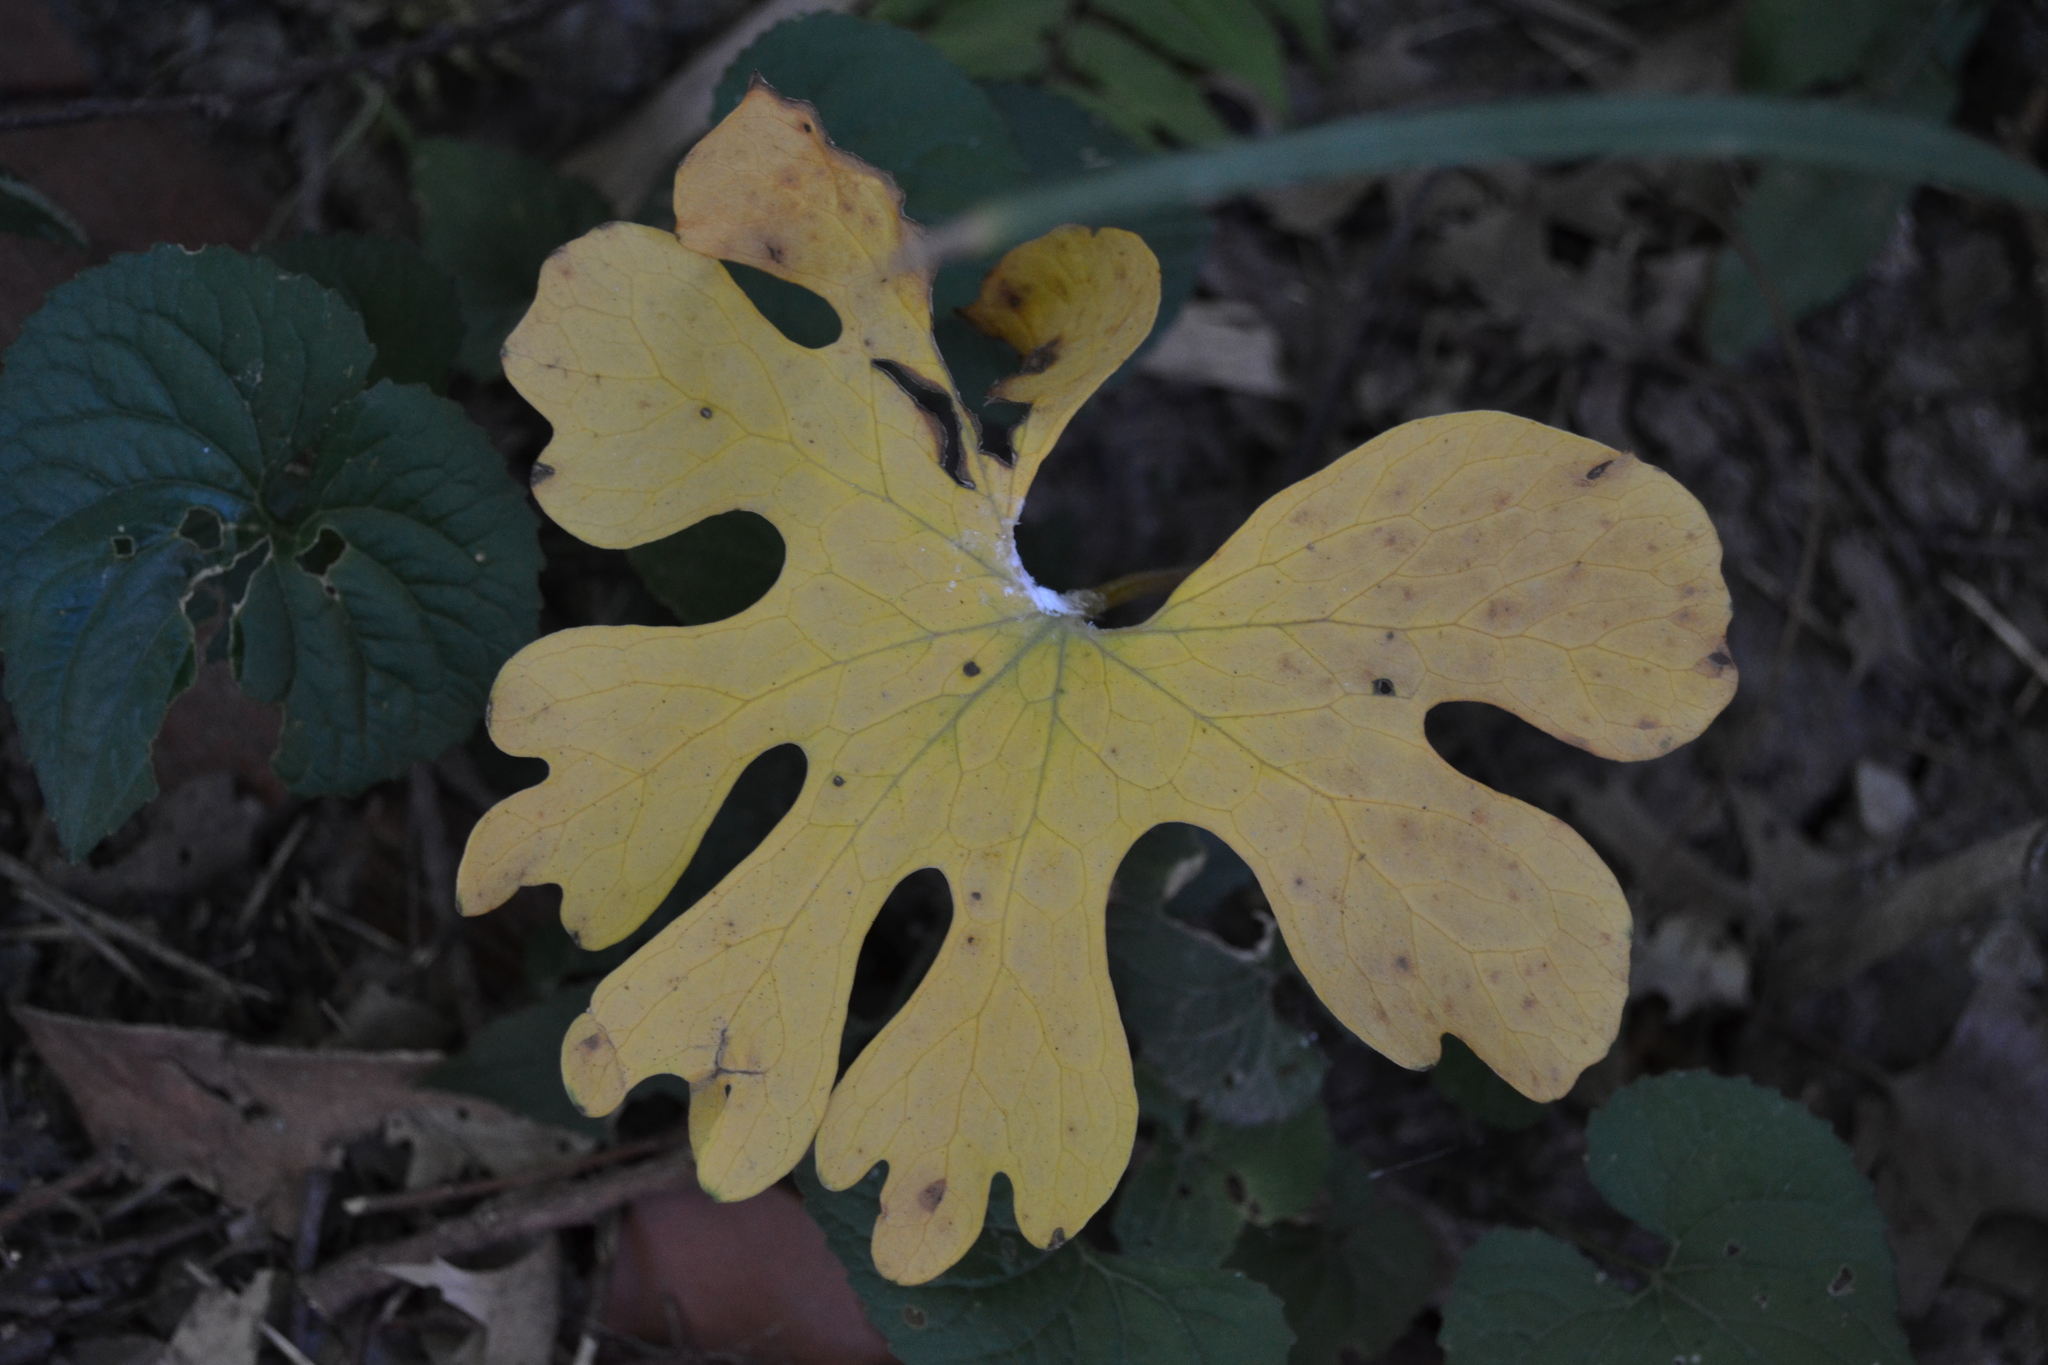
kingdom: Plantae
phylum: Tracheophyta
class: Magnoliopsida
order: Ranunculales
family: Papaveraceae
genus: Sanguinaria
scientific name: Sanguinaria canadensis
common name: Bloodroot
